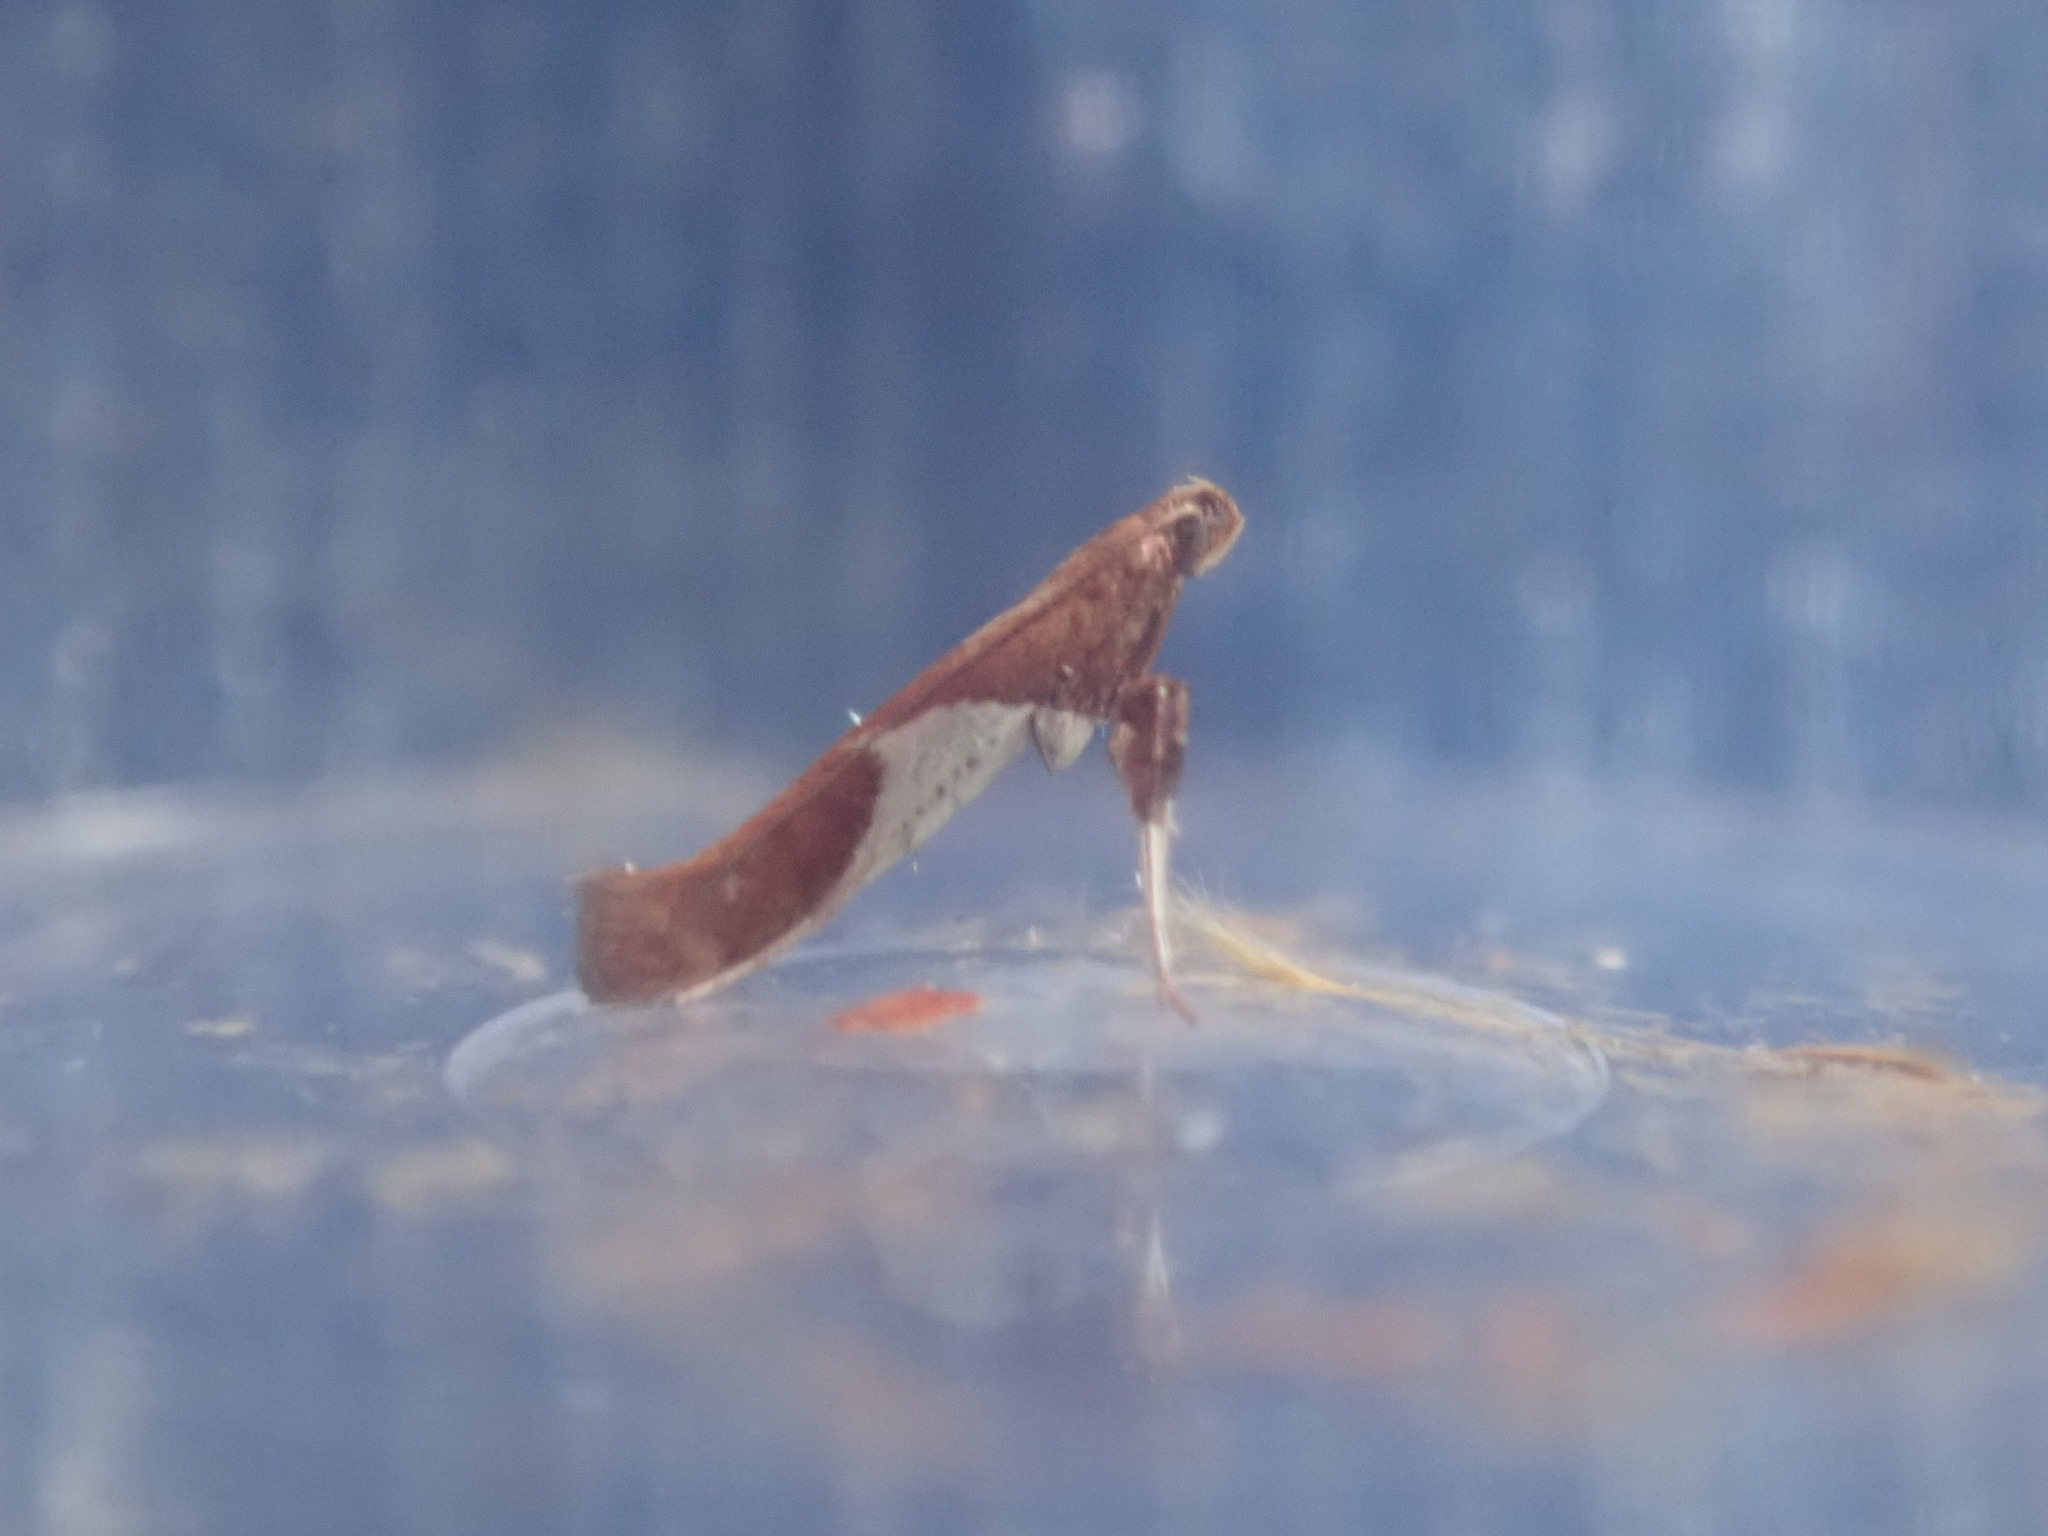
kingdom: Animalia
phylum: Arthropoda
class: Insecta
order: Lepidoptera
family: Gracillariidae
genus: Caloptilia
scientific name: Caloptilia stigmatella
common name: White-triangle slender
